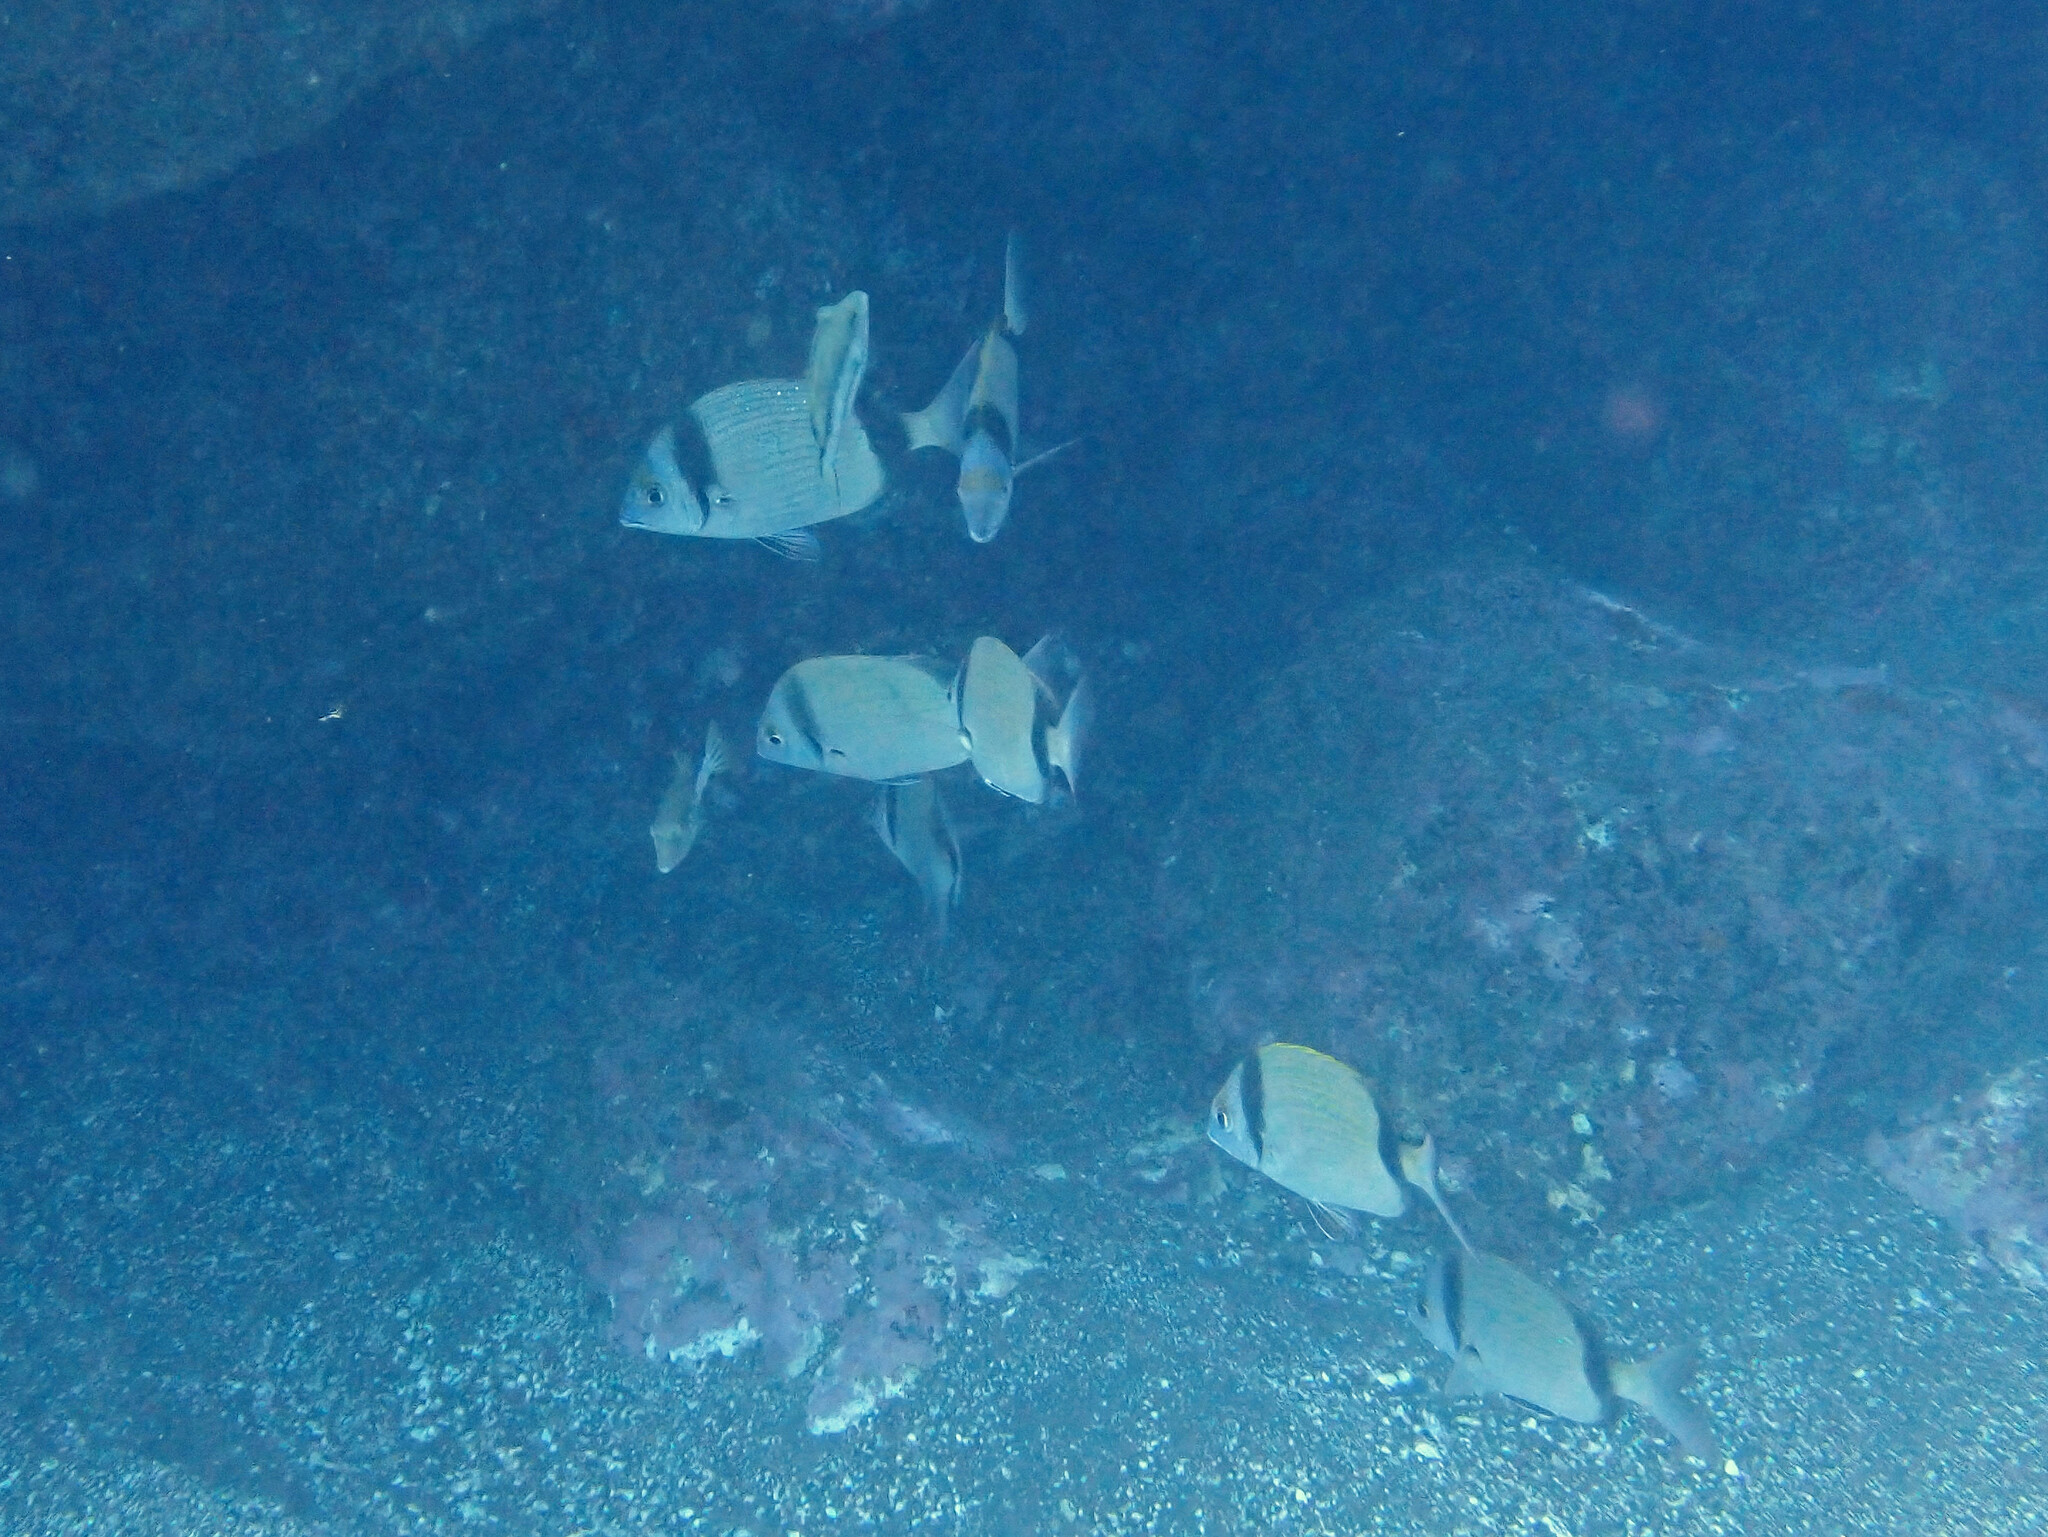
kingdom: Animalia
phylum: Chordata
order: Perciformes
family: Sparidae
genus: Diplodus
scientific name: Diplodus vulgaris
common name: Common two-banded seabream
